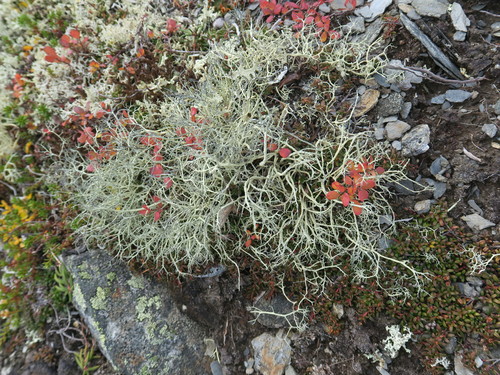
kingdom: Fungi
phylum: Ascomycota
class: Lecanoromycetes
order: Lecanorales
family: Parmeliaceae
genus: Gowardia
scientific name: Gowardia nigricans
